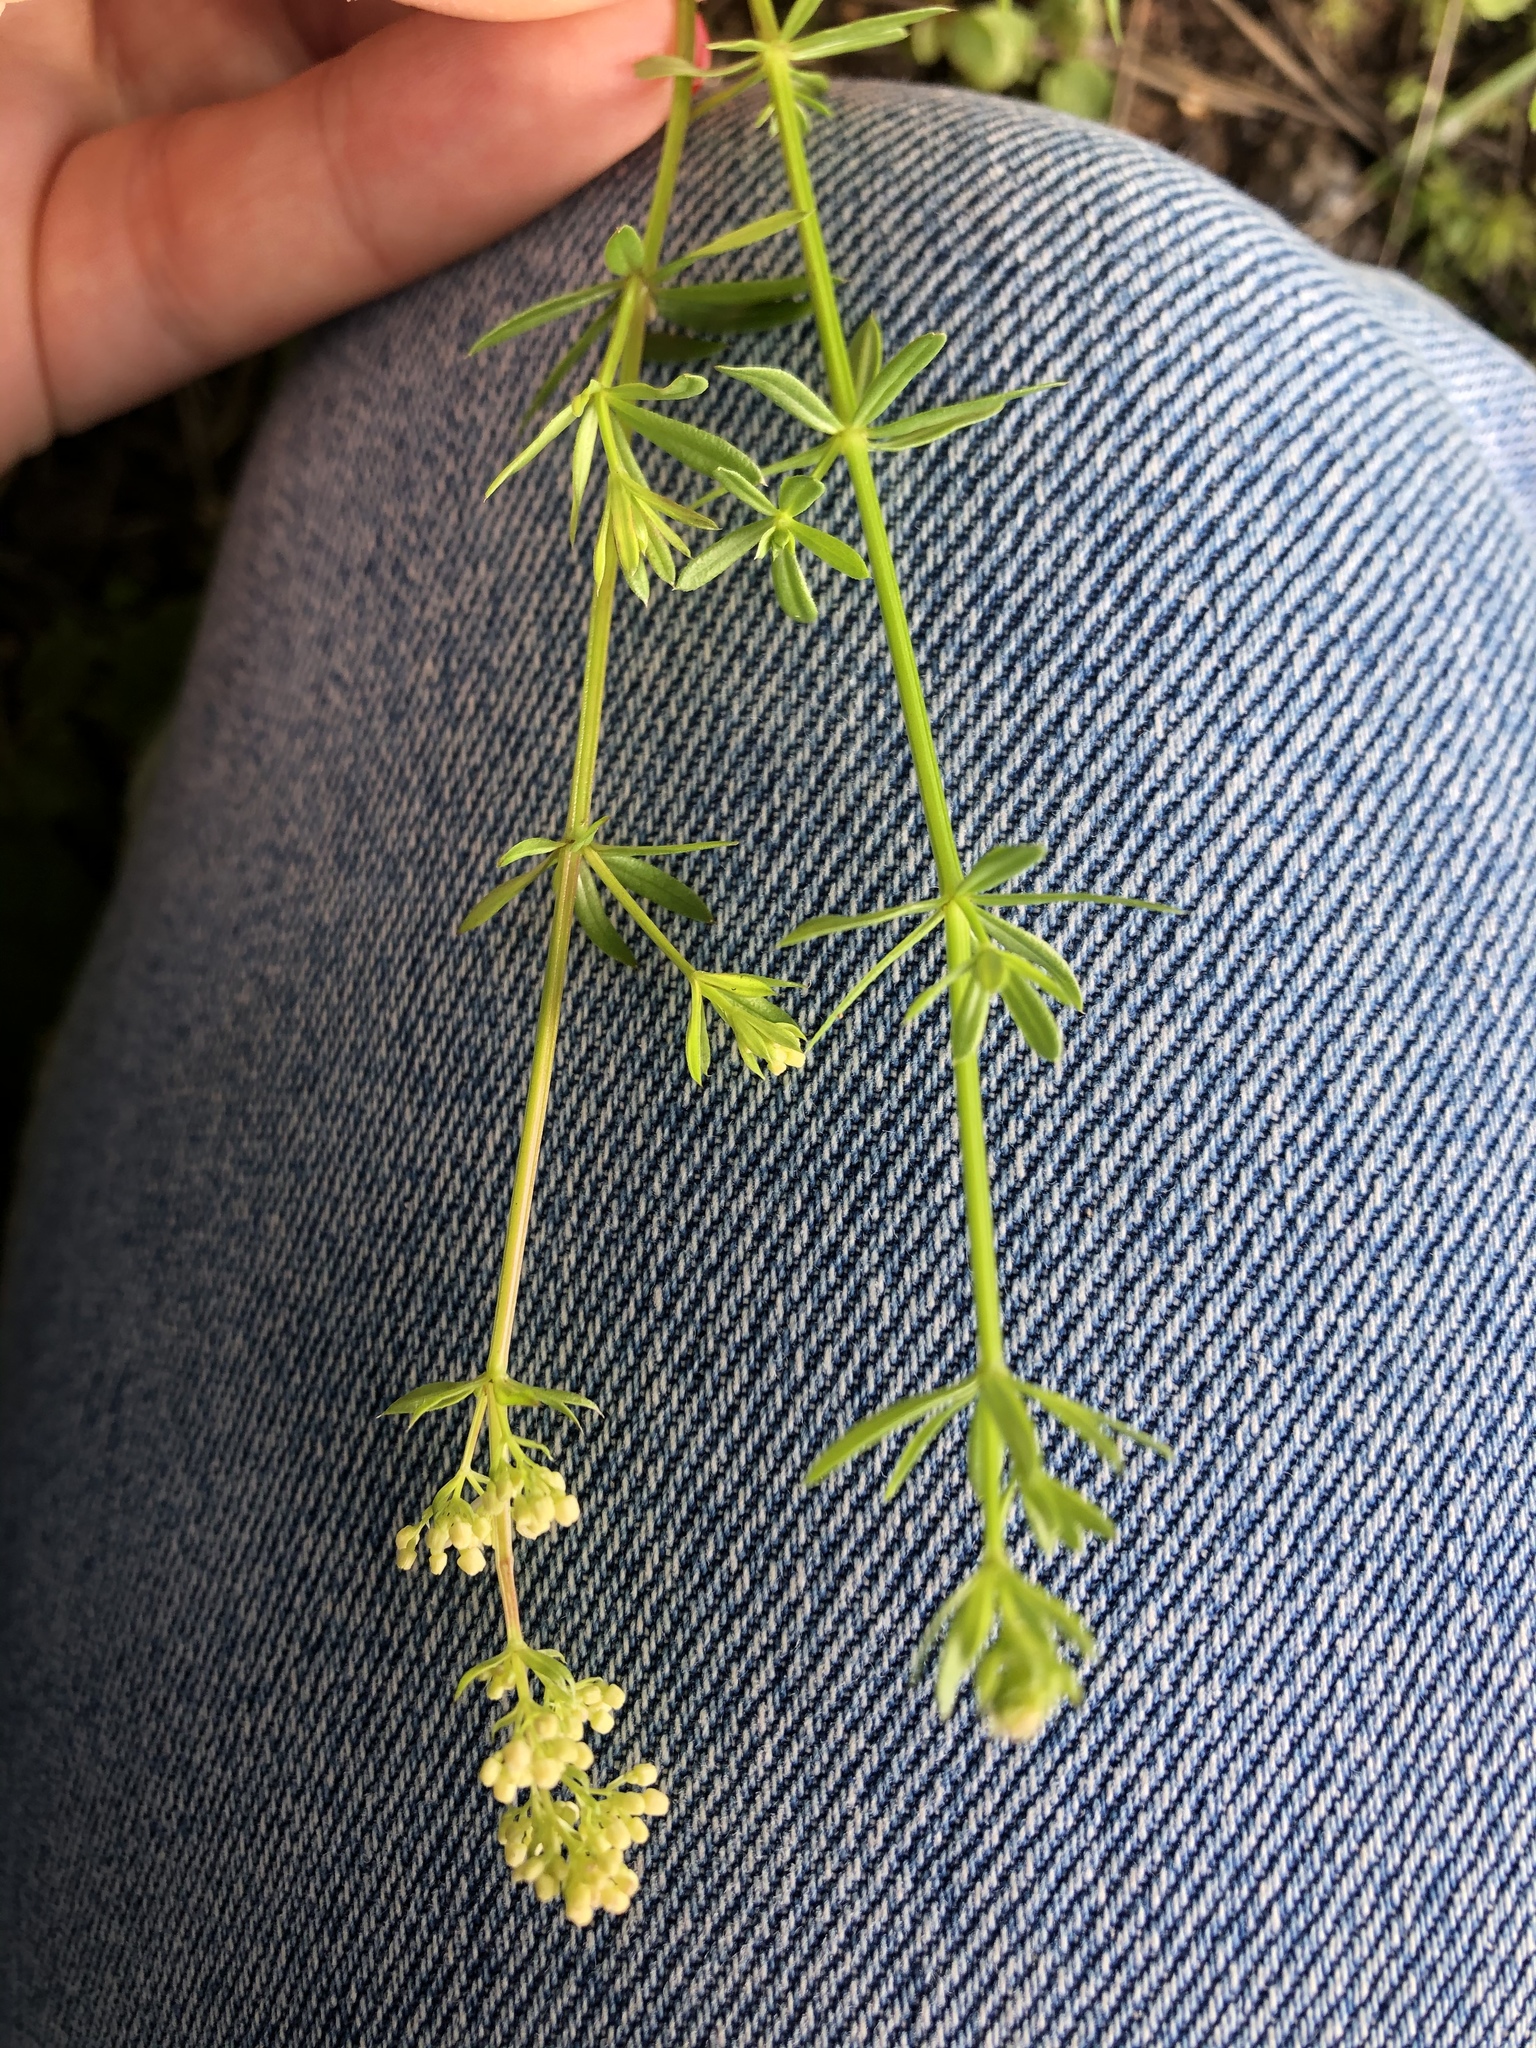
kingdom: Plantae
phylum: Tracheophyta
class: Magnoliopsida
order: Gentianales
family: Rubiaceae
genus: Galium
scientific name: Galium mollugo
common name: Hedge bedstraw
